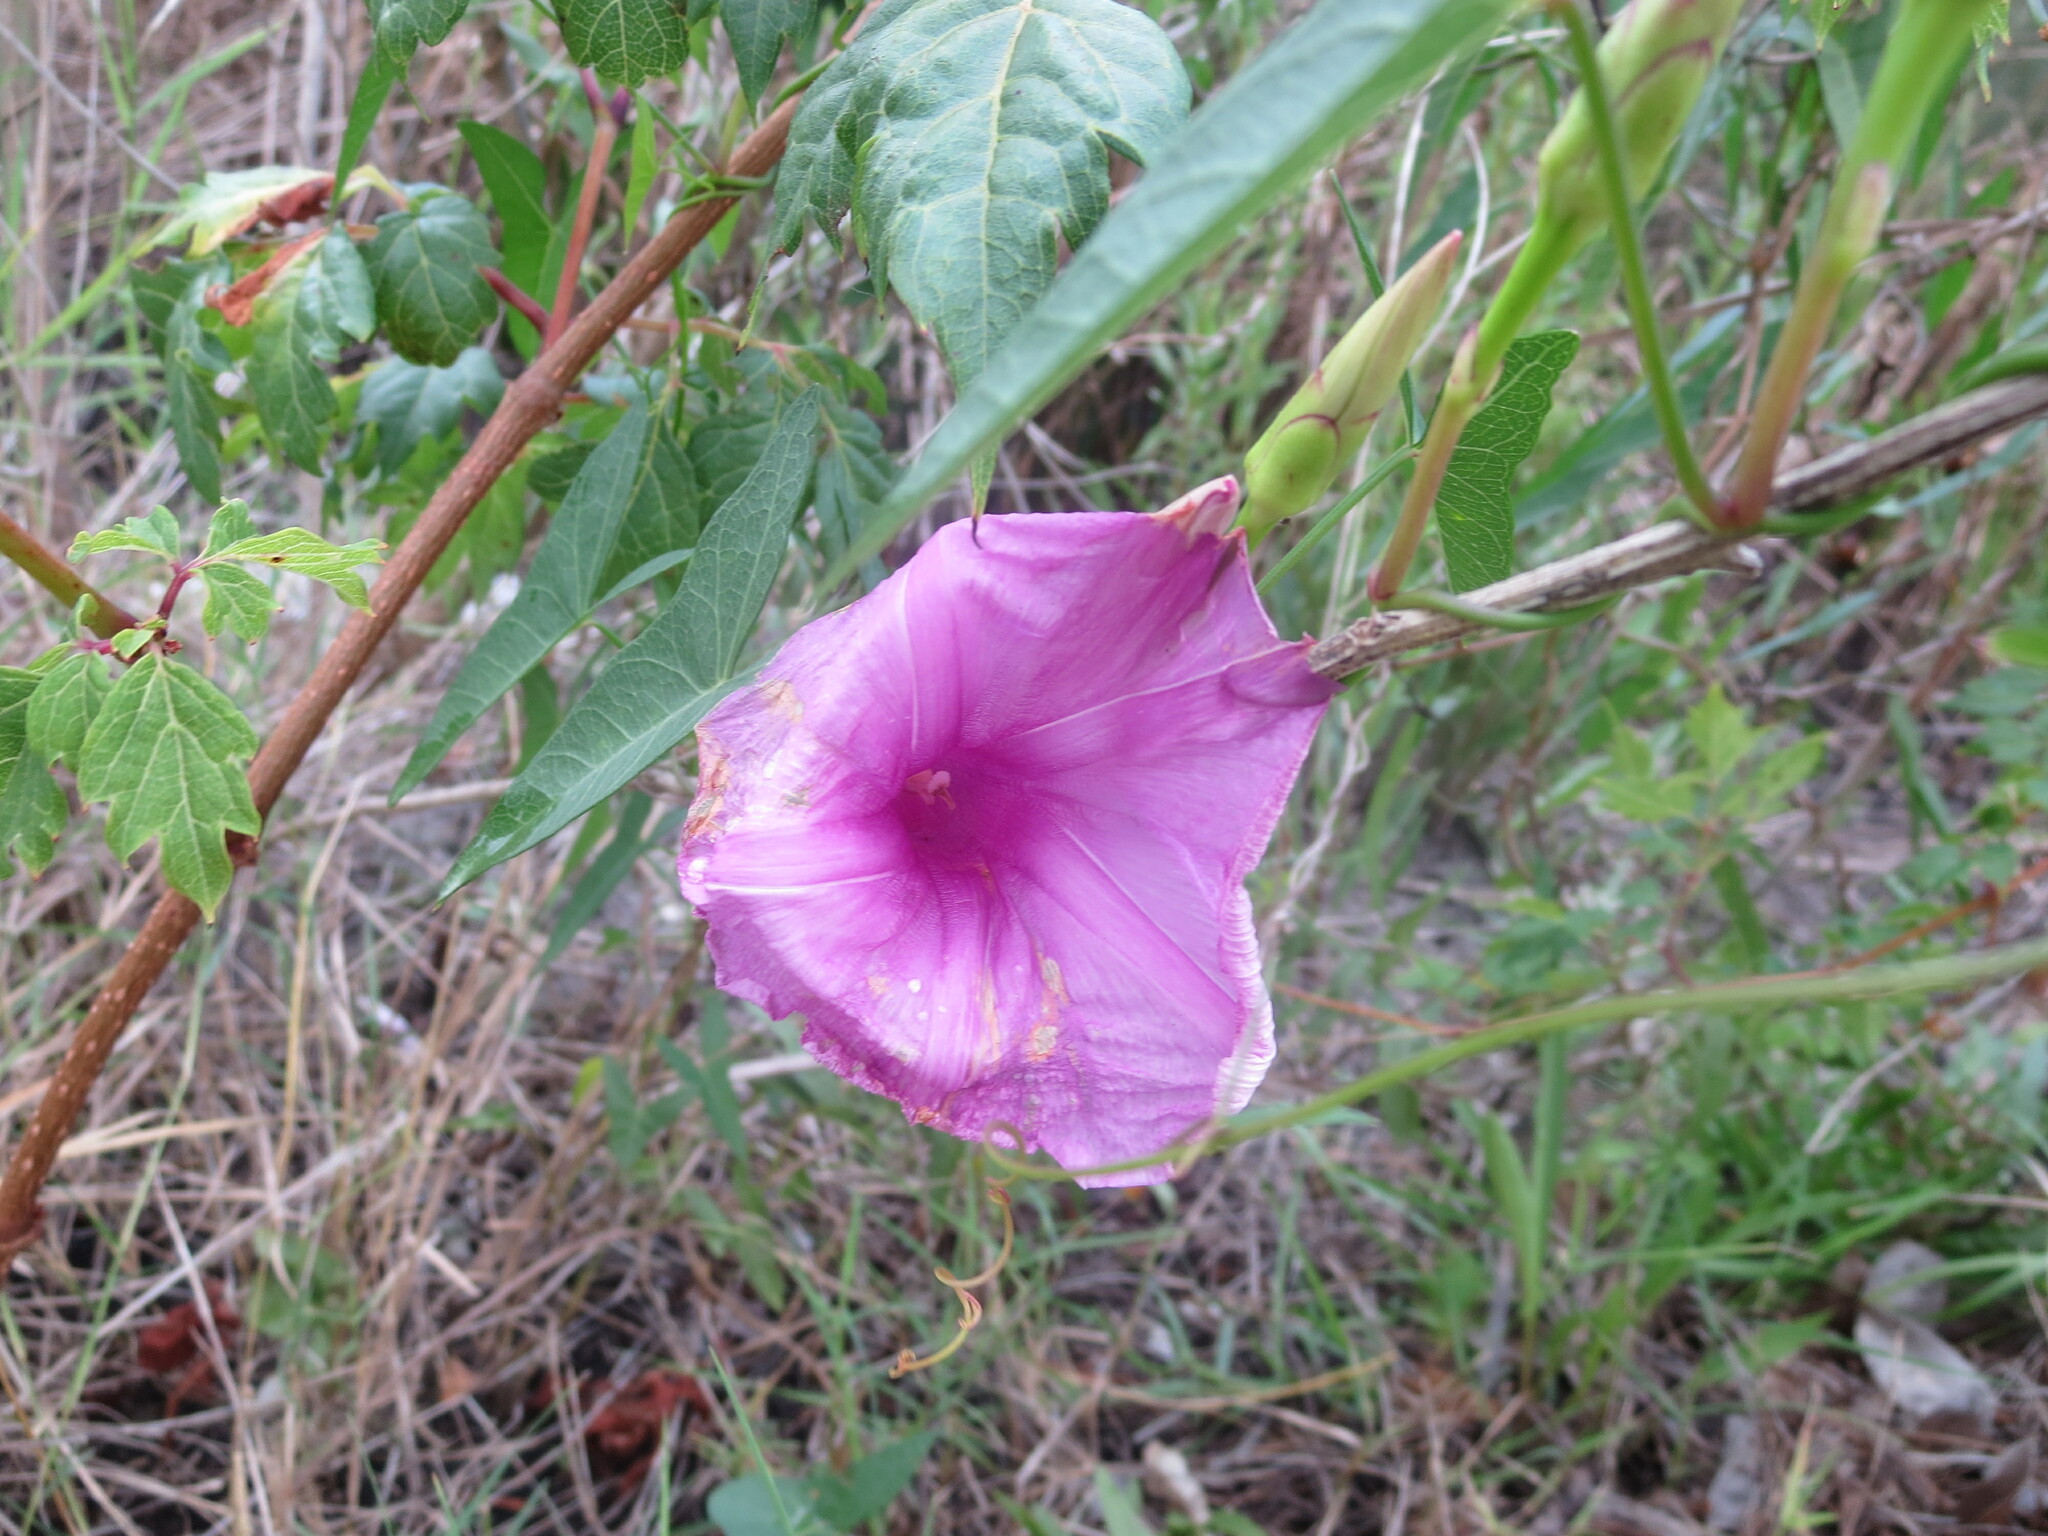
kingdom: Plantae
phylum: Tracheophyta
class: Magnoliopsida
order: Solanales
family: Convolvulaceae
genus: Ipomoea
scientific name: Ipomoea sagittata
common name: Saltmarsh morning glory
